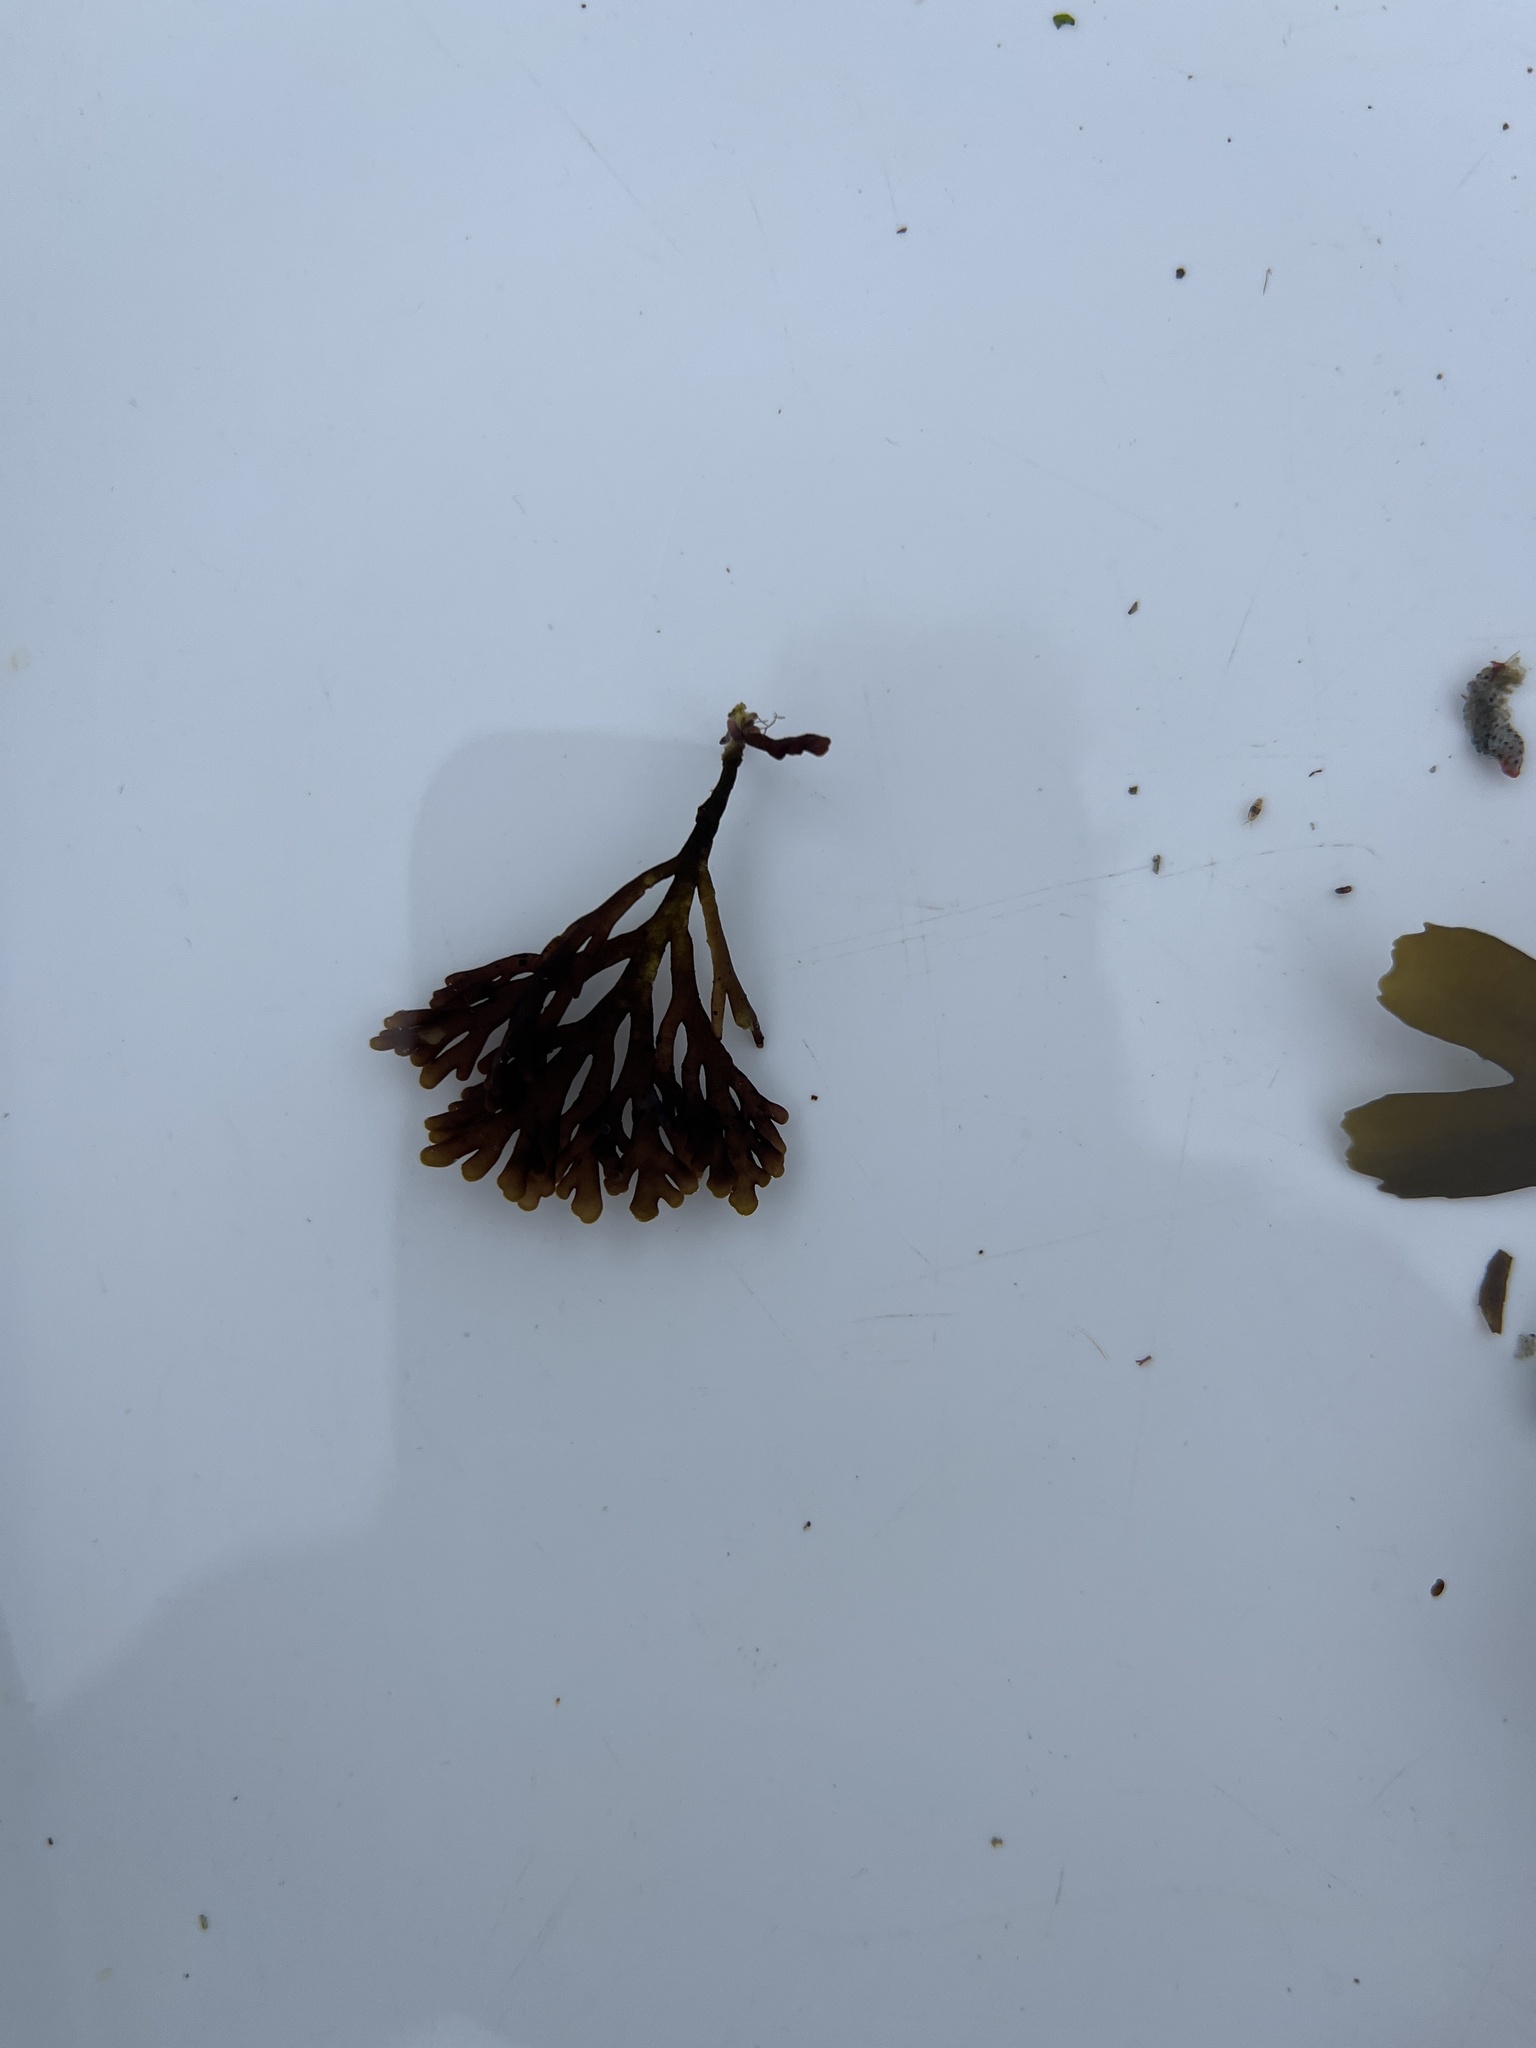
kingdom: Plantae
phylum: Rhodophyta
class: Florideophyceae
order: Ceramiales
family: Rhodomelaceae
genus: Laurencia
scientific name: Laurencia Osmundea pinnatifida
